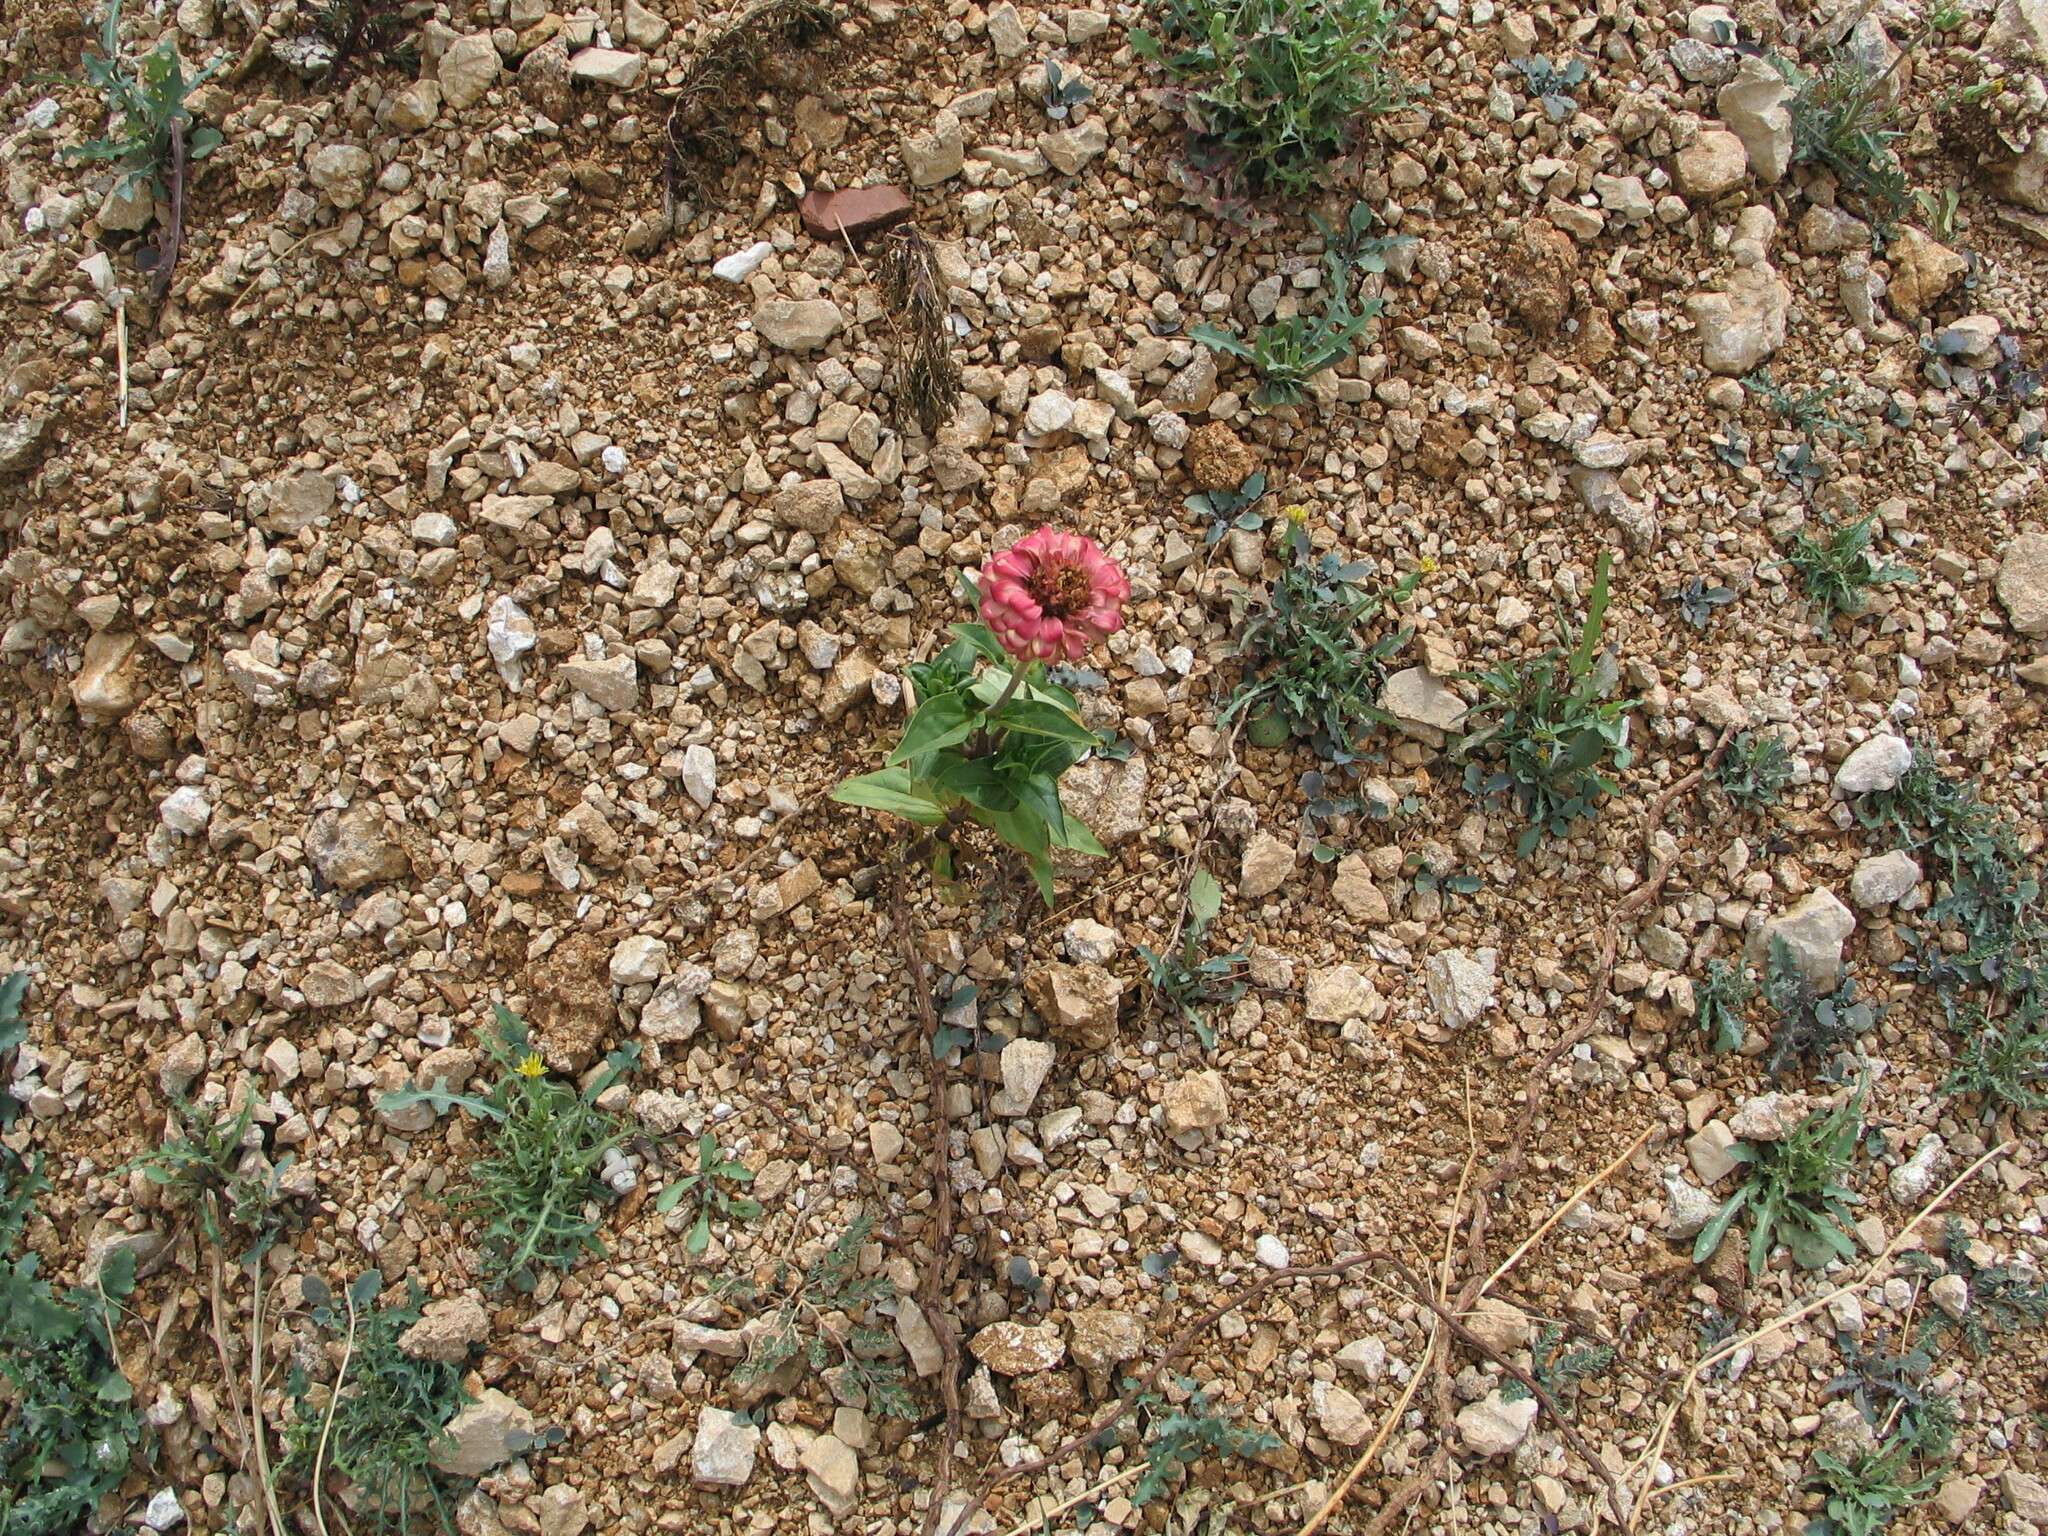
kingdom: Plantae
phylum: Tracheophyta
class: Magnoliopsida
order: Asterales
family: Asteraceae
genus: Zinnia
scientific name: Zinnia elegans
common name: Youth-and-age
